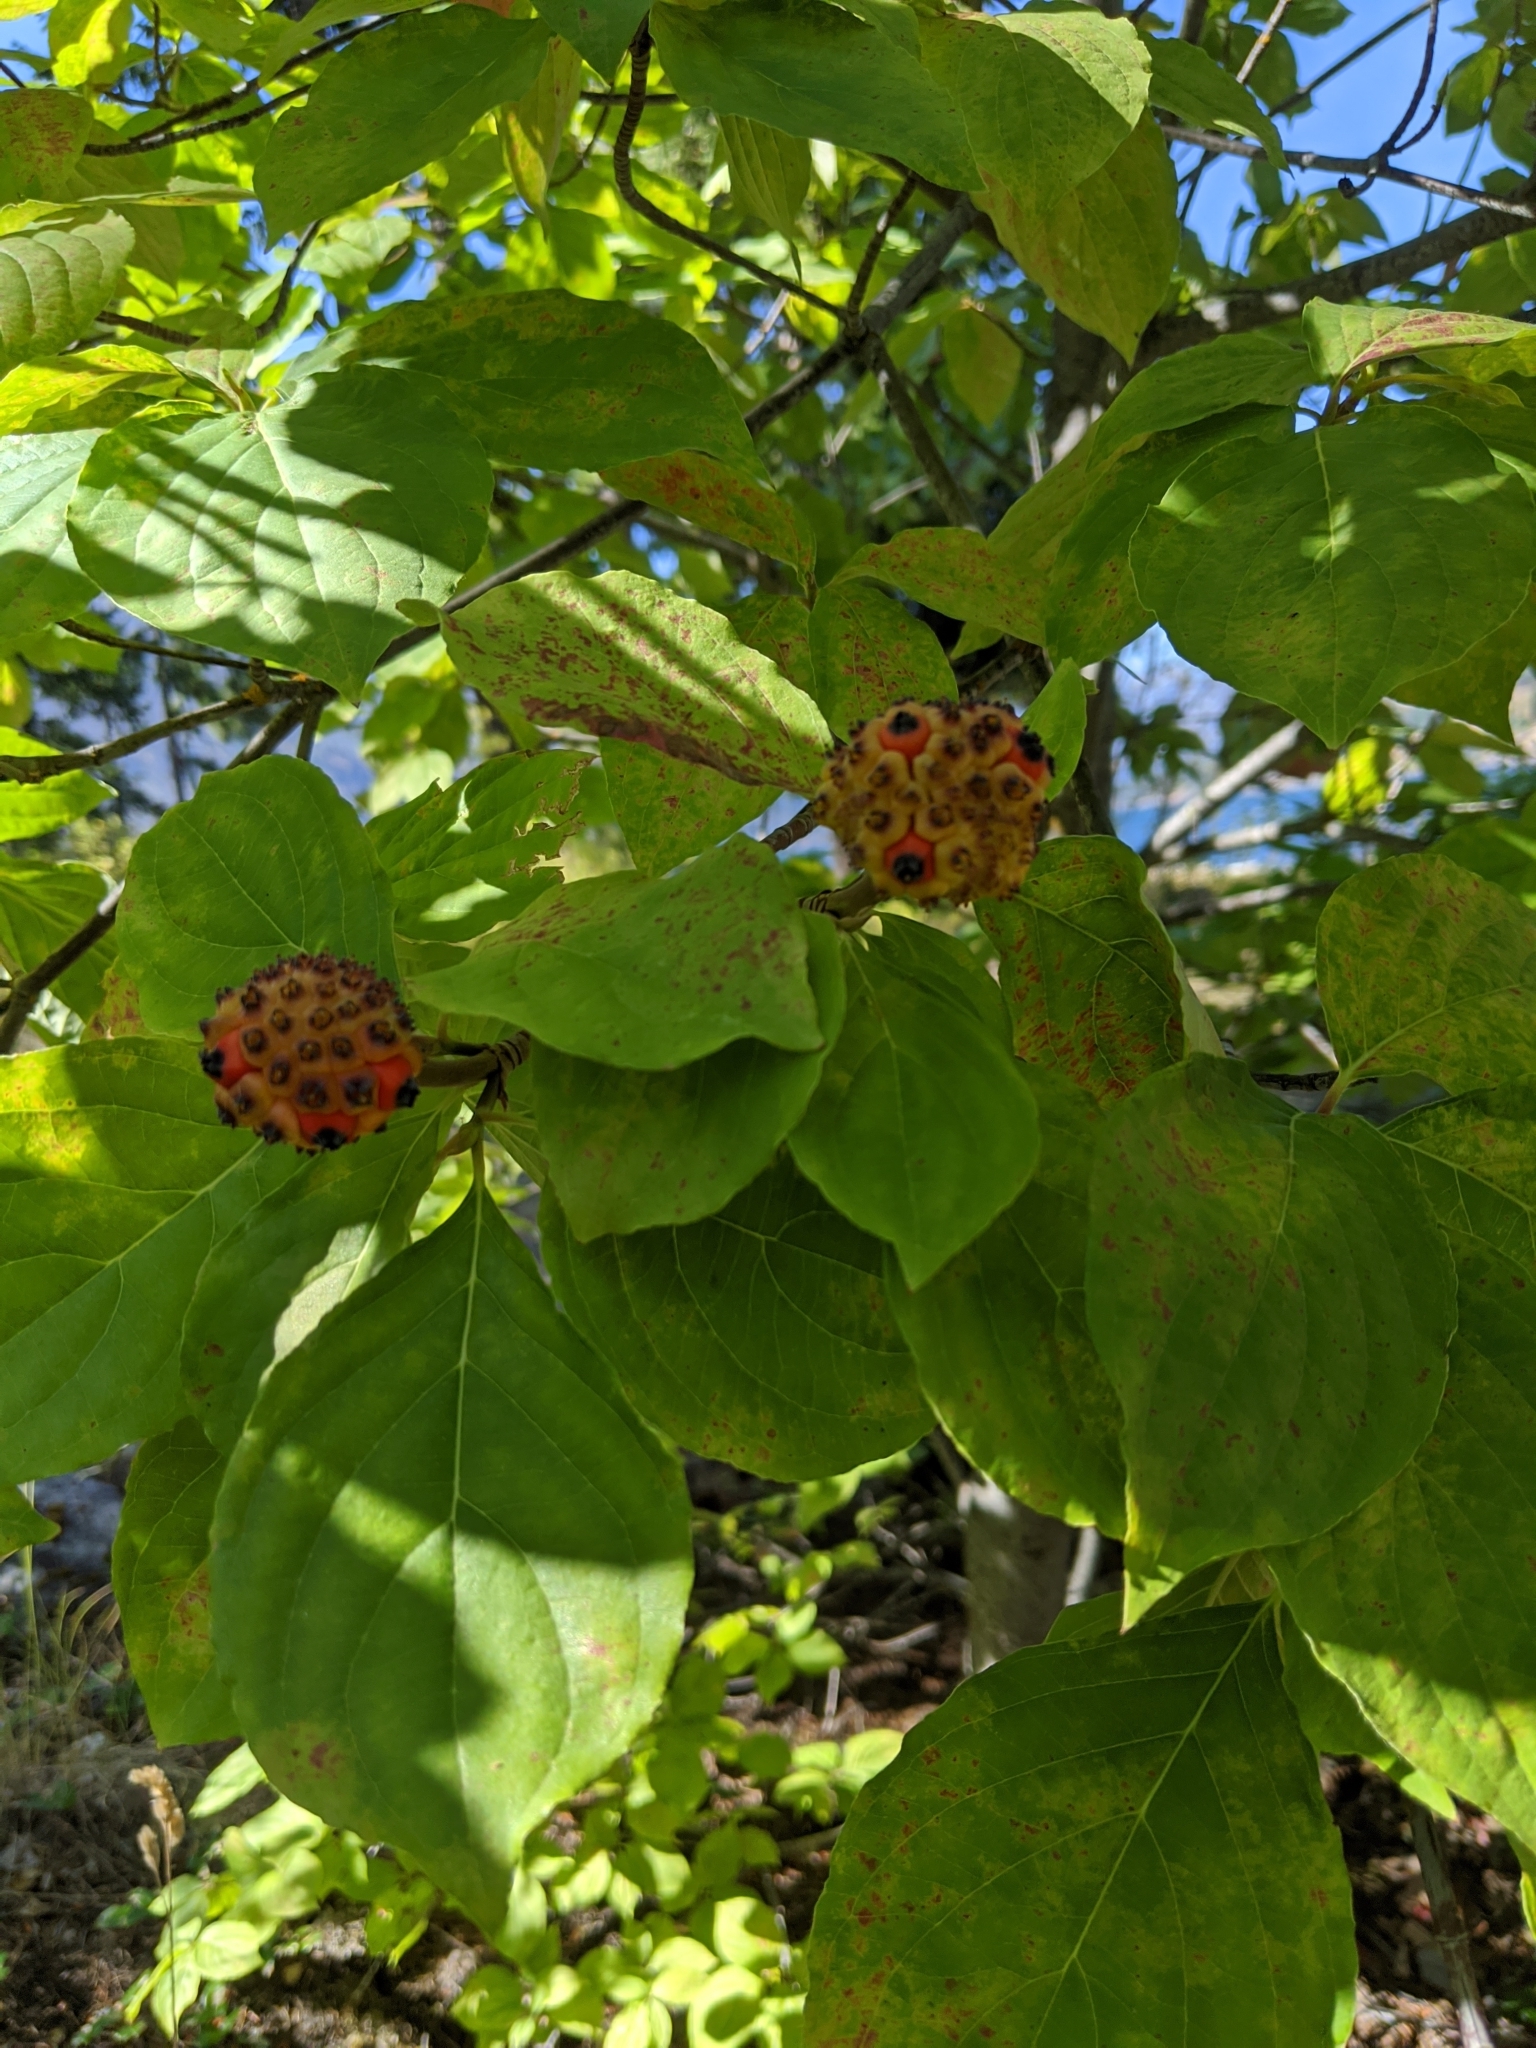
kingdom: Plantae
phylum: Tracheophyta
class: Magnoliopsida
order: Cornales
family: Cornaceae
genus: Cornus
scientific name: Cornus nuttallii
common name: Pacific dogwood
